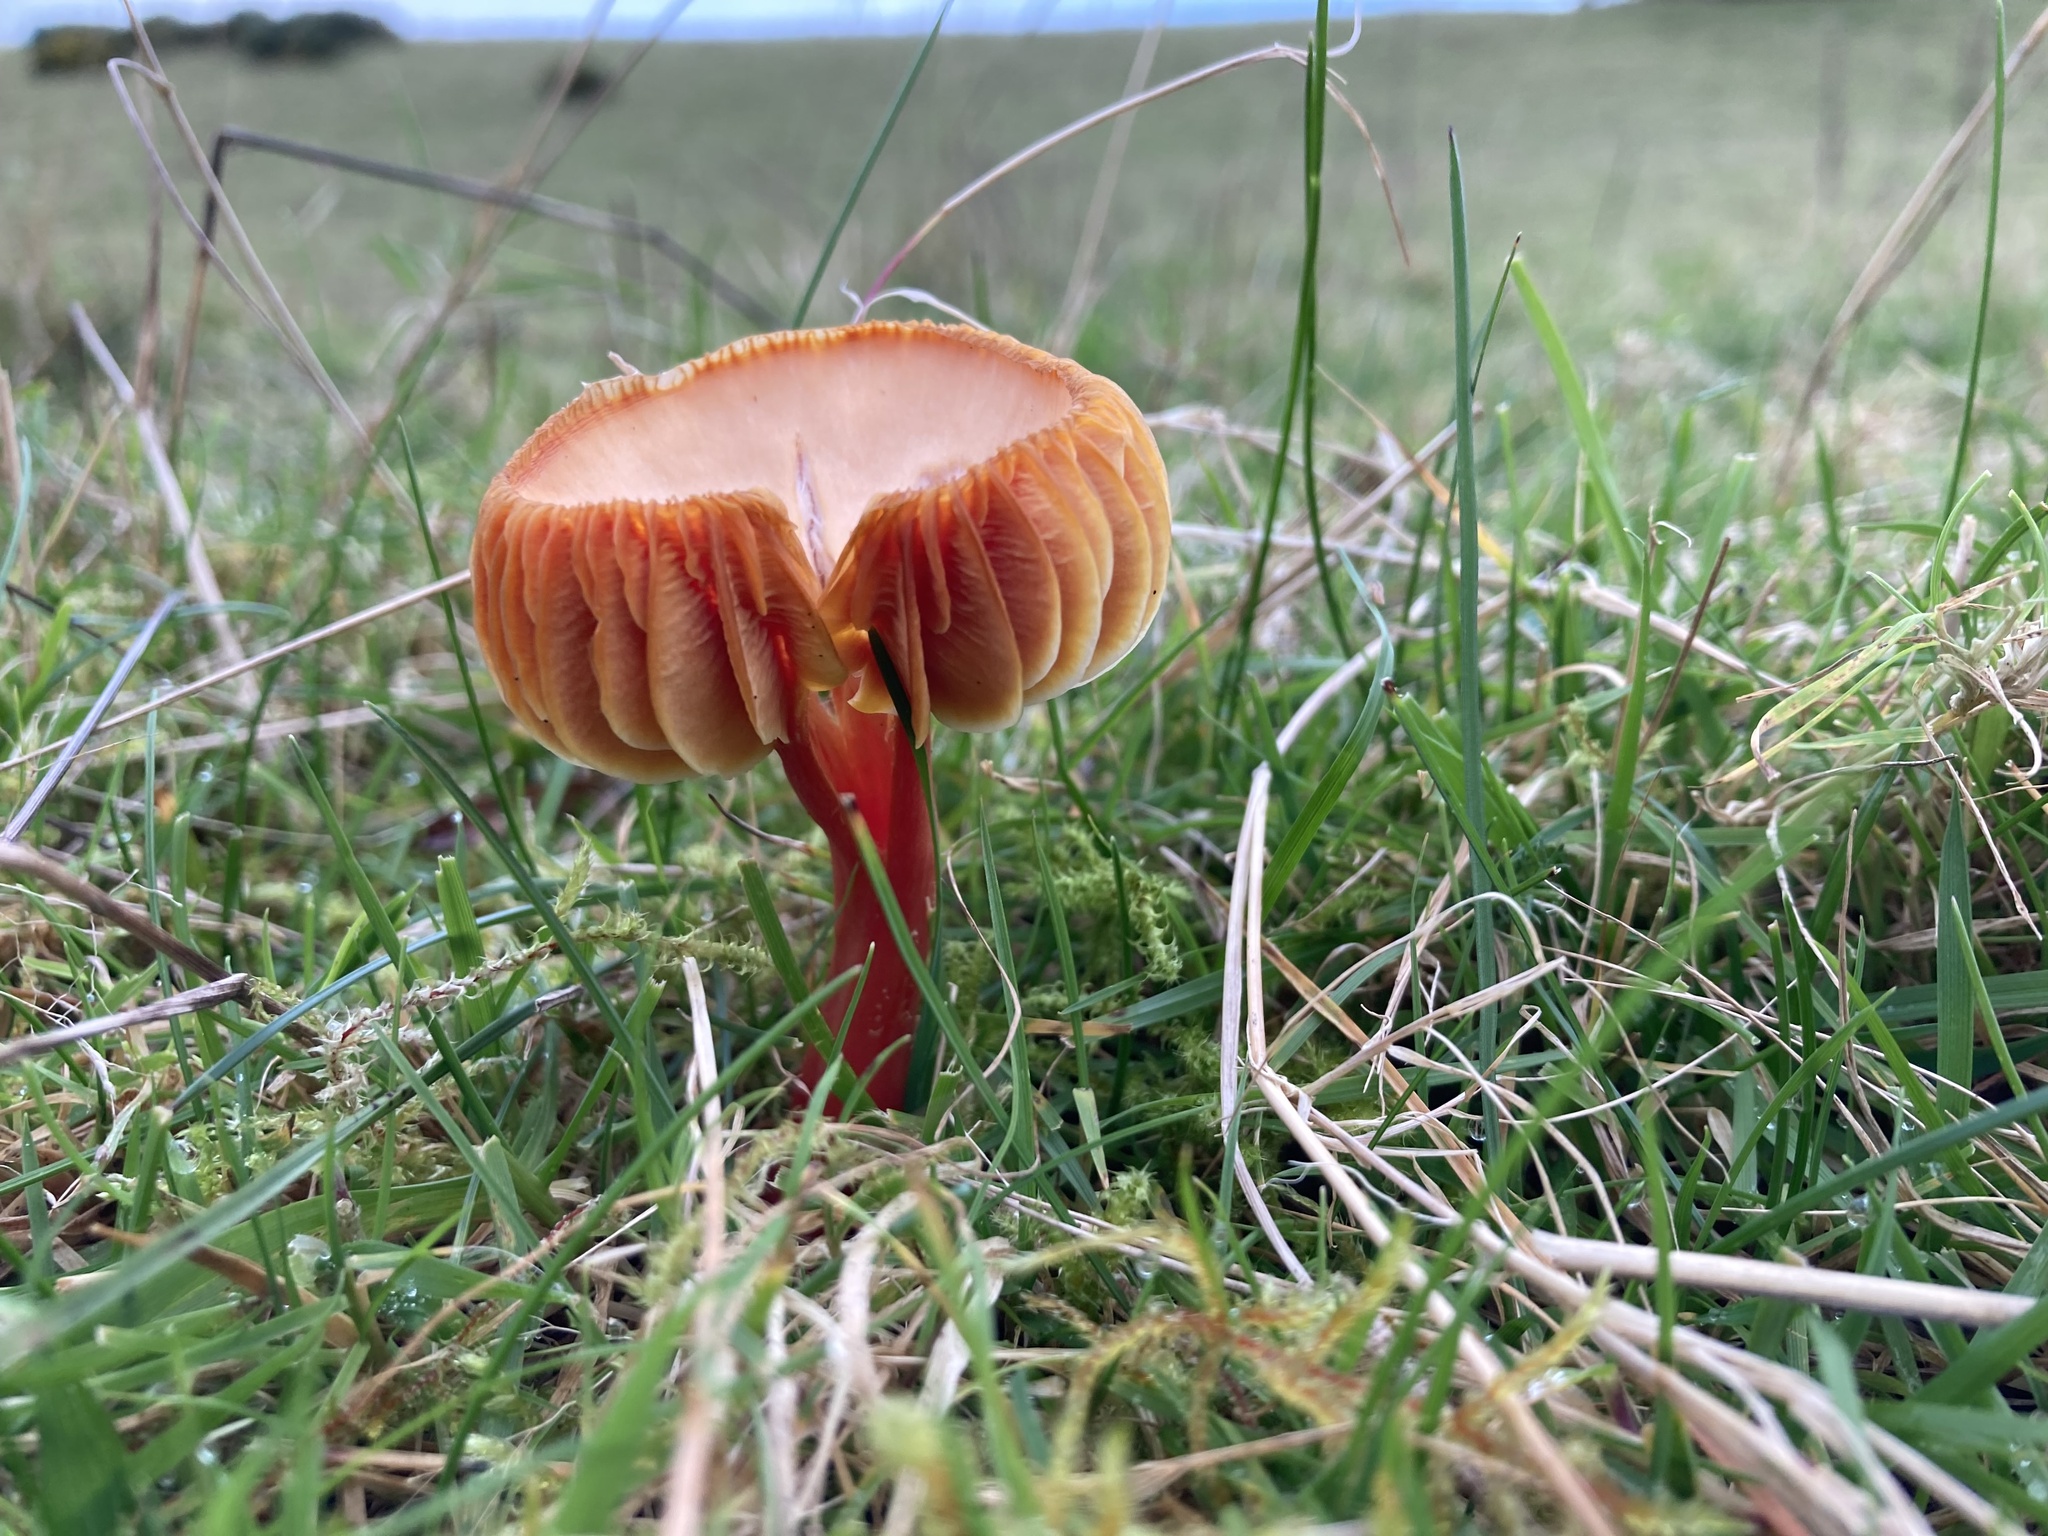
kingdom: Fungi
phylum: Basidiomycota
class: Agaricomycetes
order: Agaricales
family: Hygrophoraceae
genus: Hygrocybe
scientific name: Hygrocybe punicea
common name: Crimson waxcap
